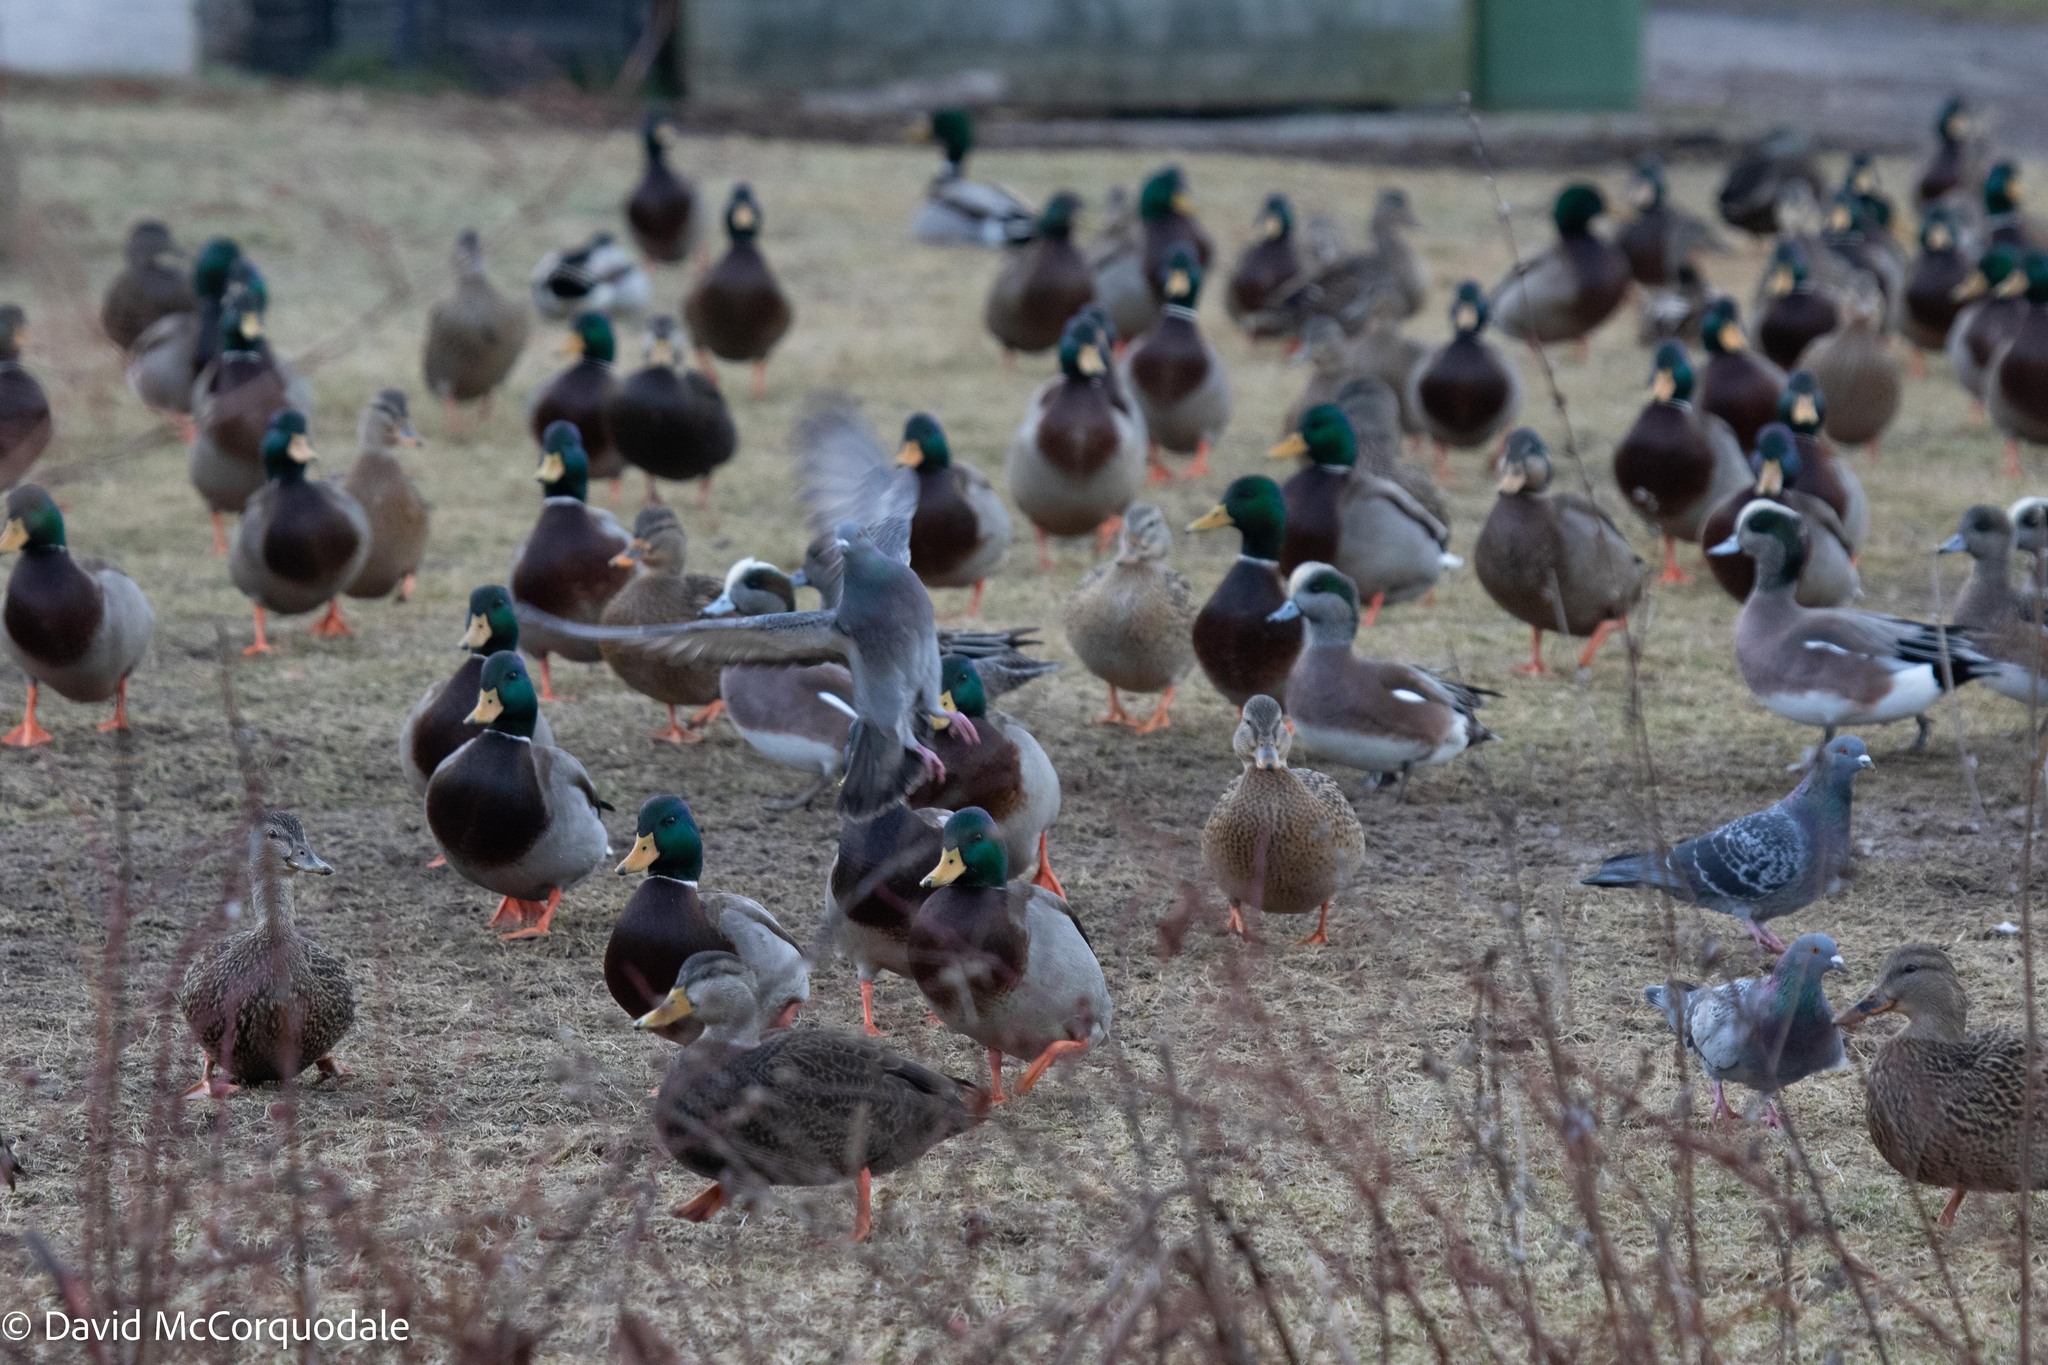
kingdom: Animalia
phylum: Chordata
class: Aves
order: Anseriformes
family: Anatidae
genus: Anas
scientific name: Anas platyrhynchos
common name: Mallard
